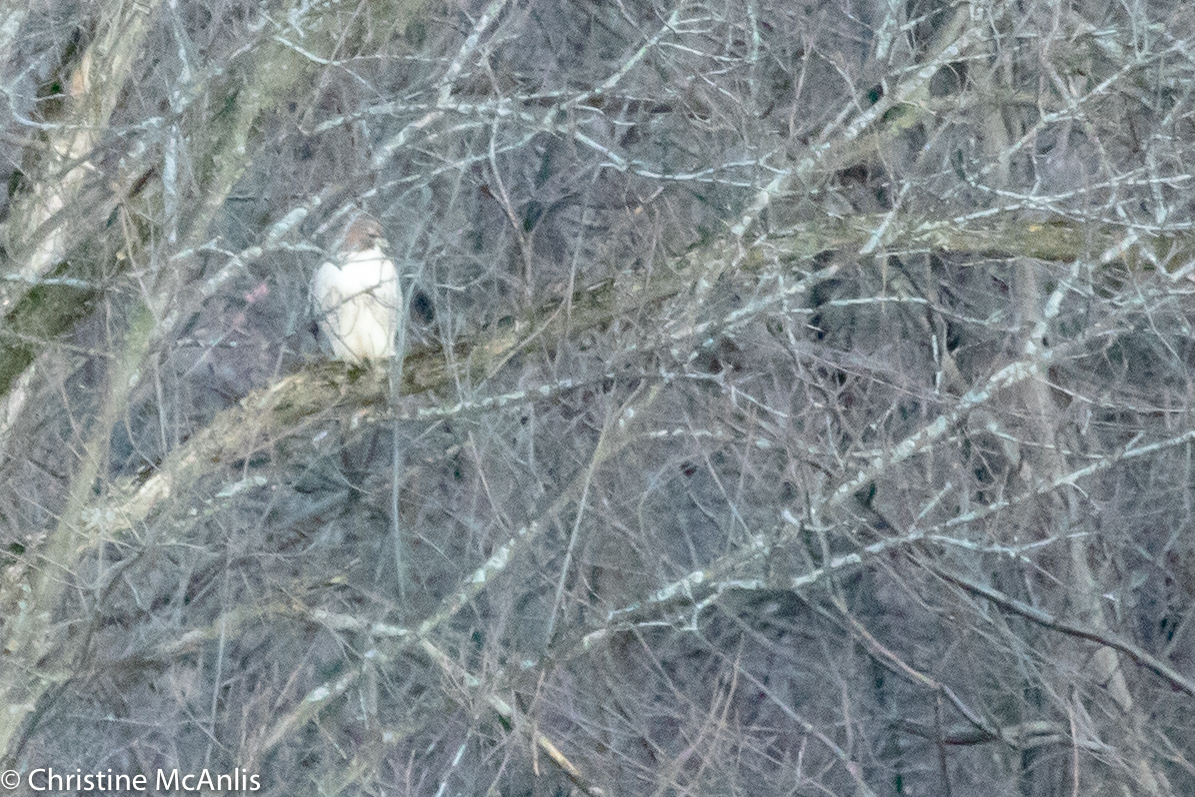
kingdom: Animalia
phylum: Chordata
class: Aves
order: Accipitriformes
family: Accipitridae
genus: Buteo
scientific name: Buteo jamaicensis
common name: Red-tailed hawk
